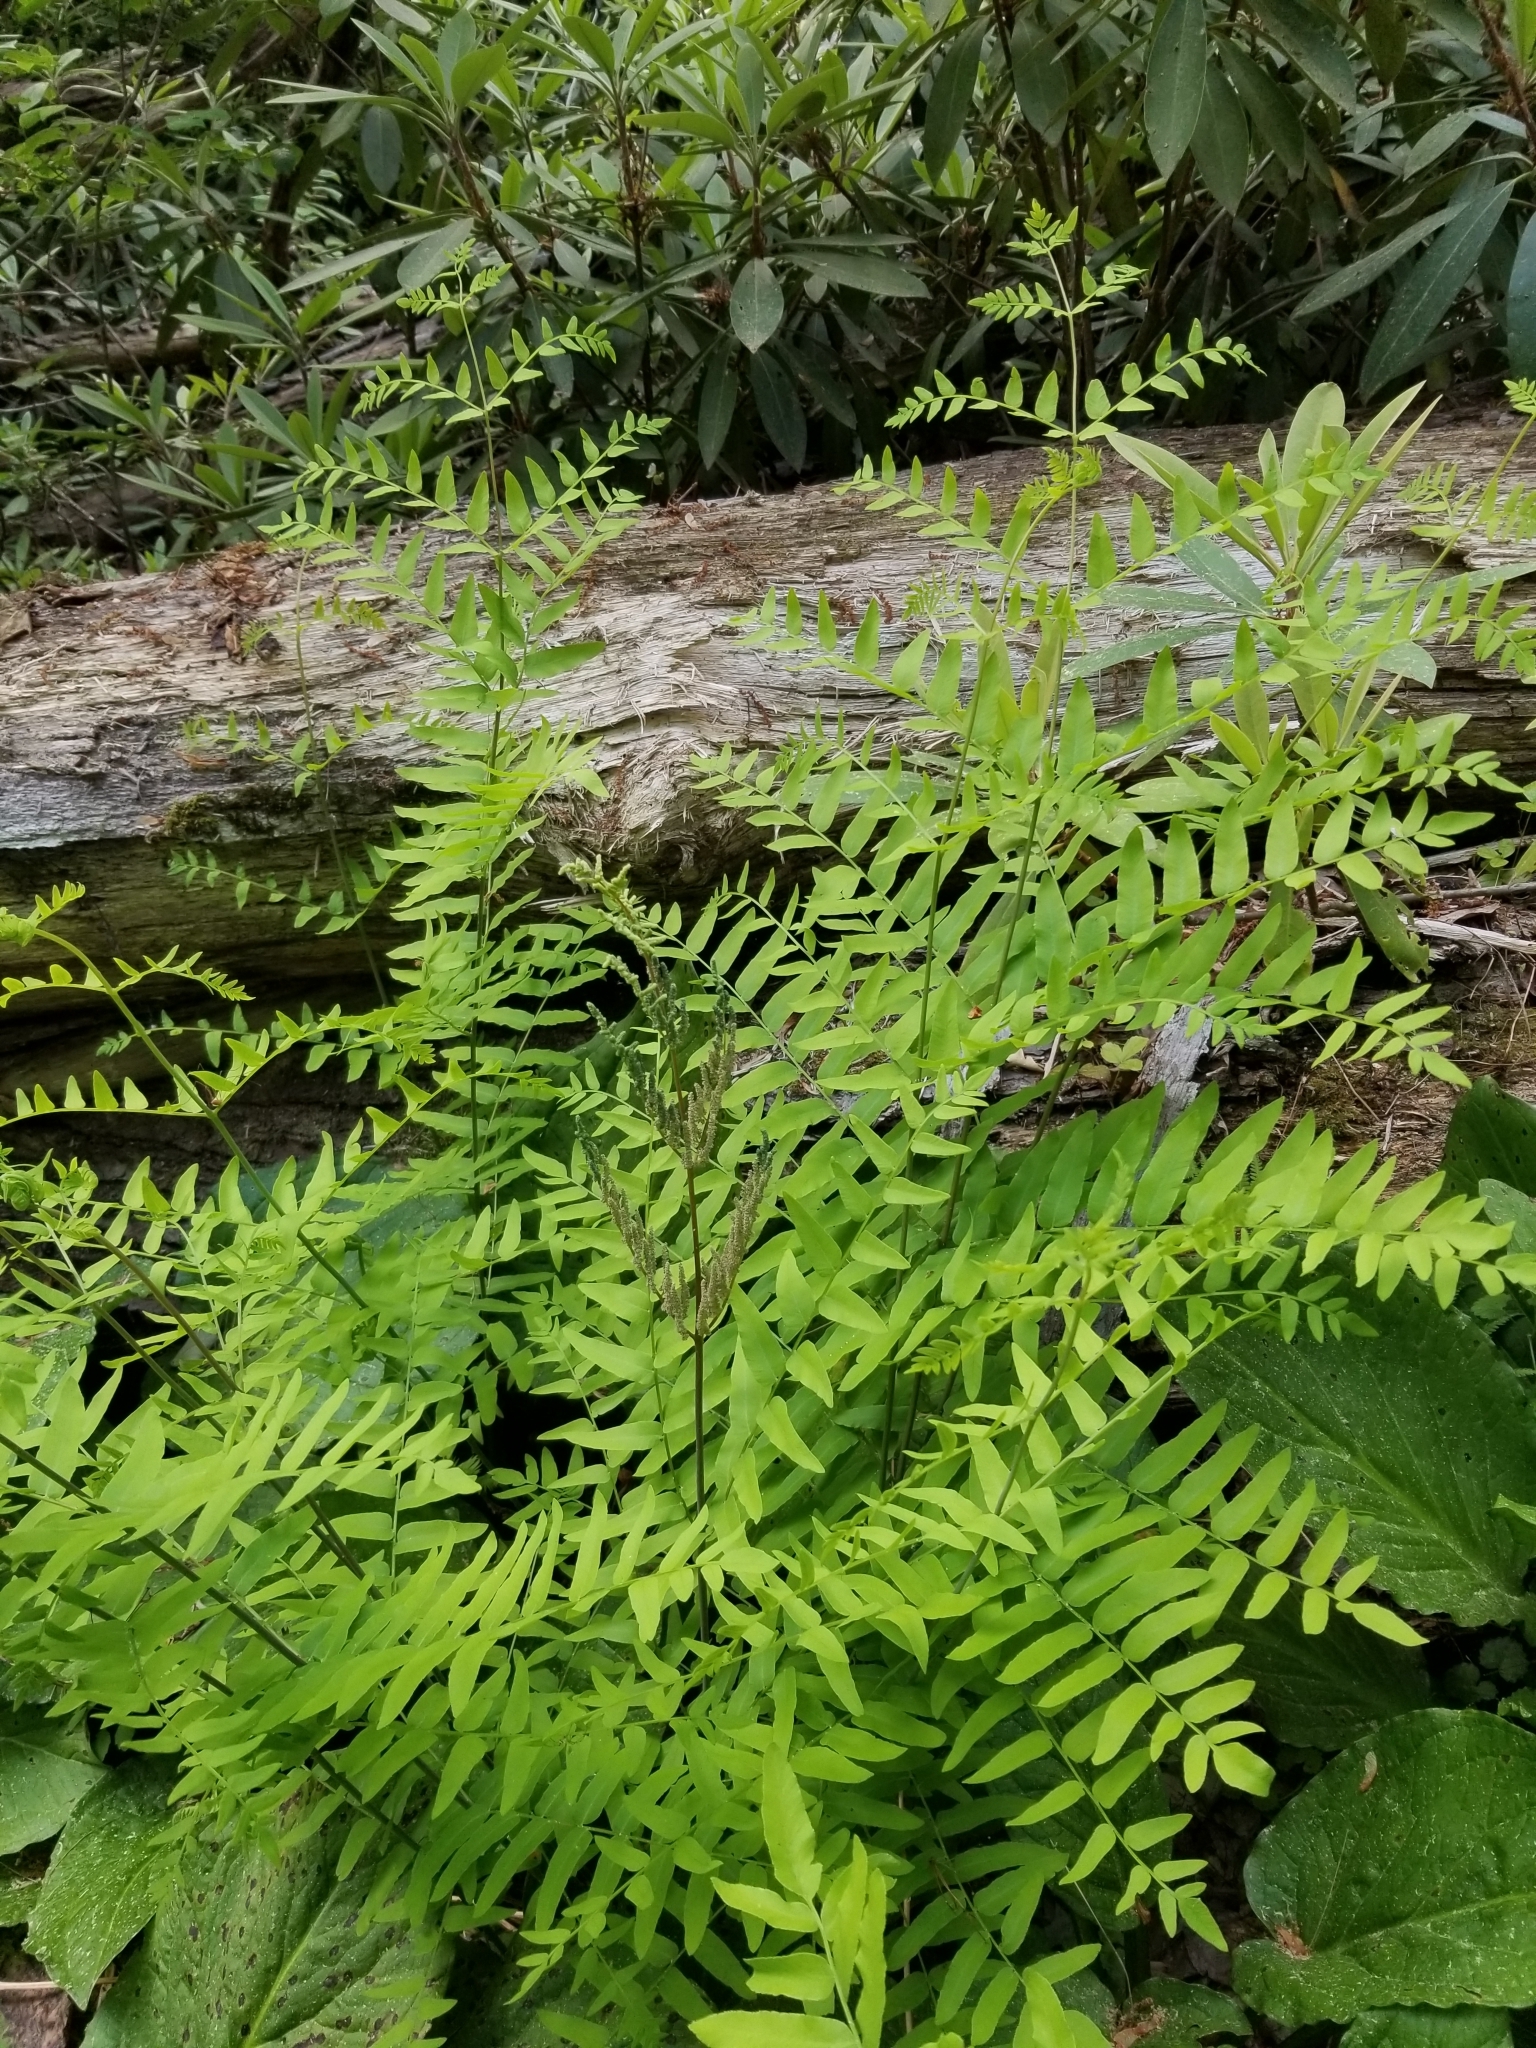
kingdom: Plantae
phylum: Tracheophyta
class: Polypodiopsida
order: Osmundales
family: Osmundaceae
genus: Osmunda
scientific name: Osmunda spectabilis
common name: American royal fern
